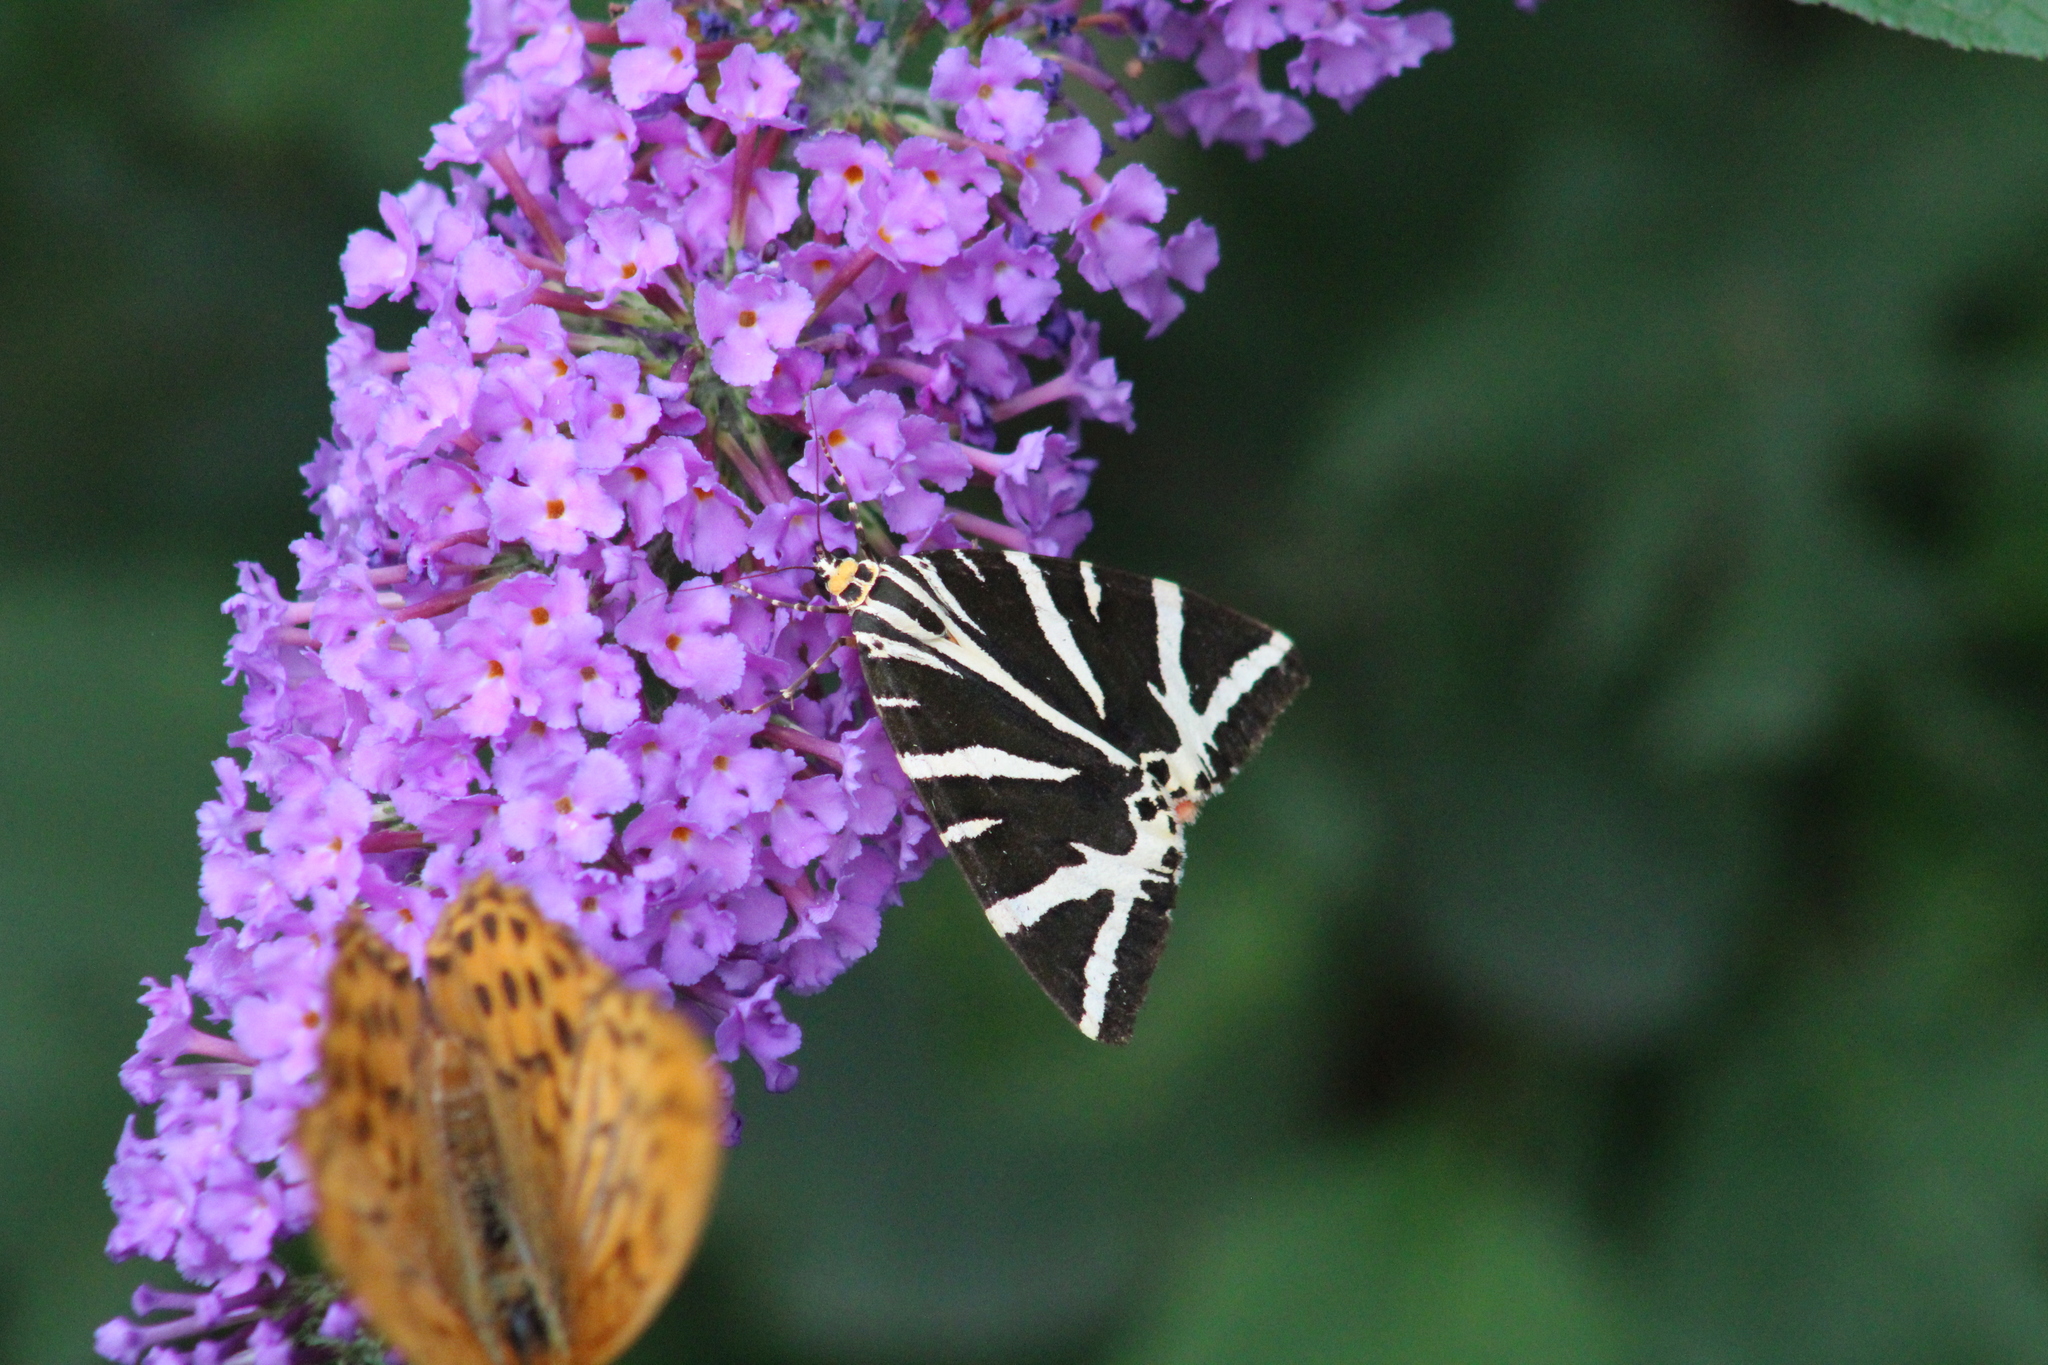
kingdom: Animalia
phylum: Arthropoda
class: Insecta
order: Lepidoptera
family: Erebidae
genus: Euplagia
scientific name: Euplagia quadripunctaria
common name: Jersey tiger
